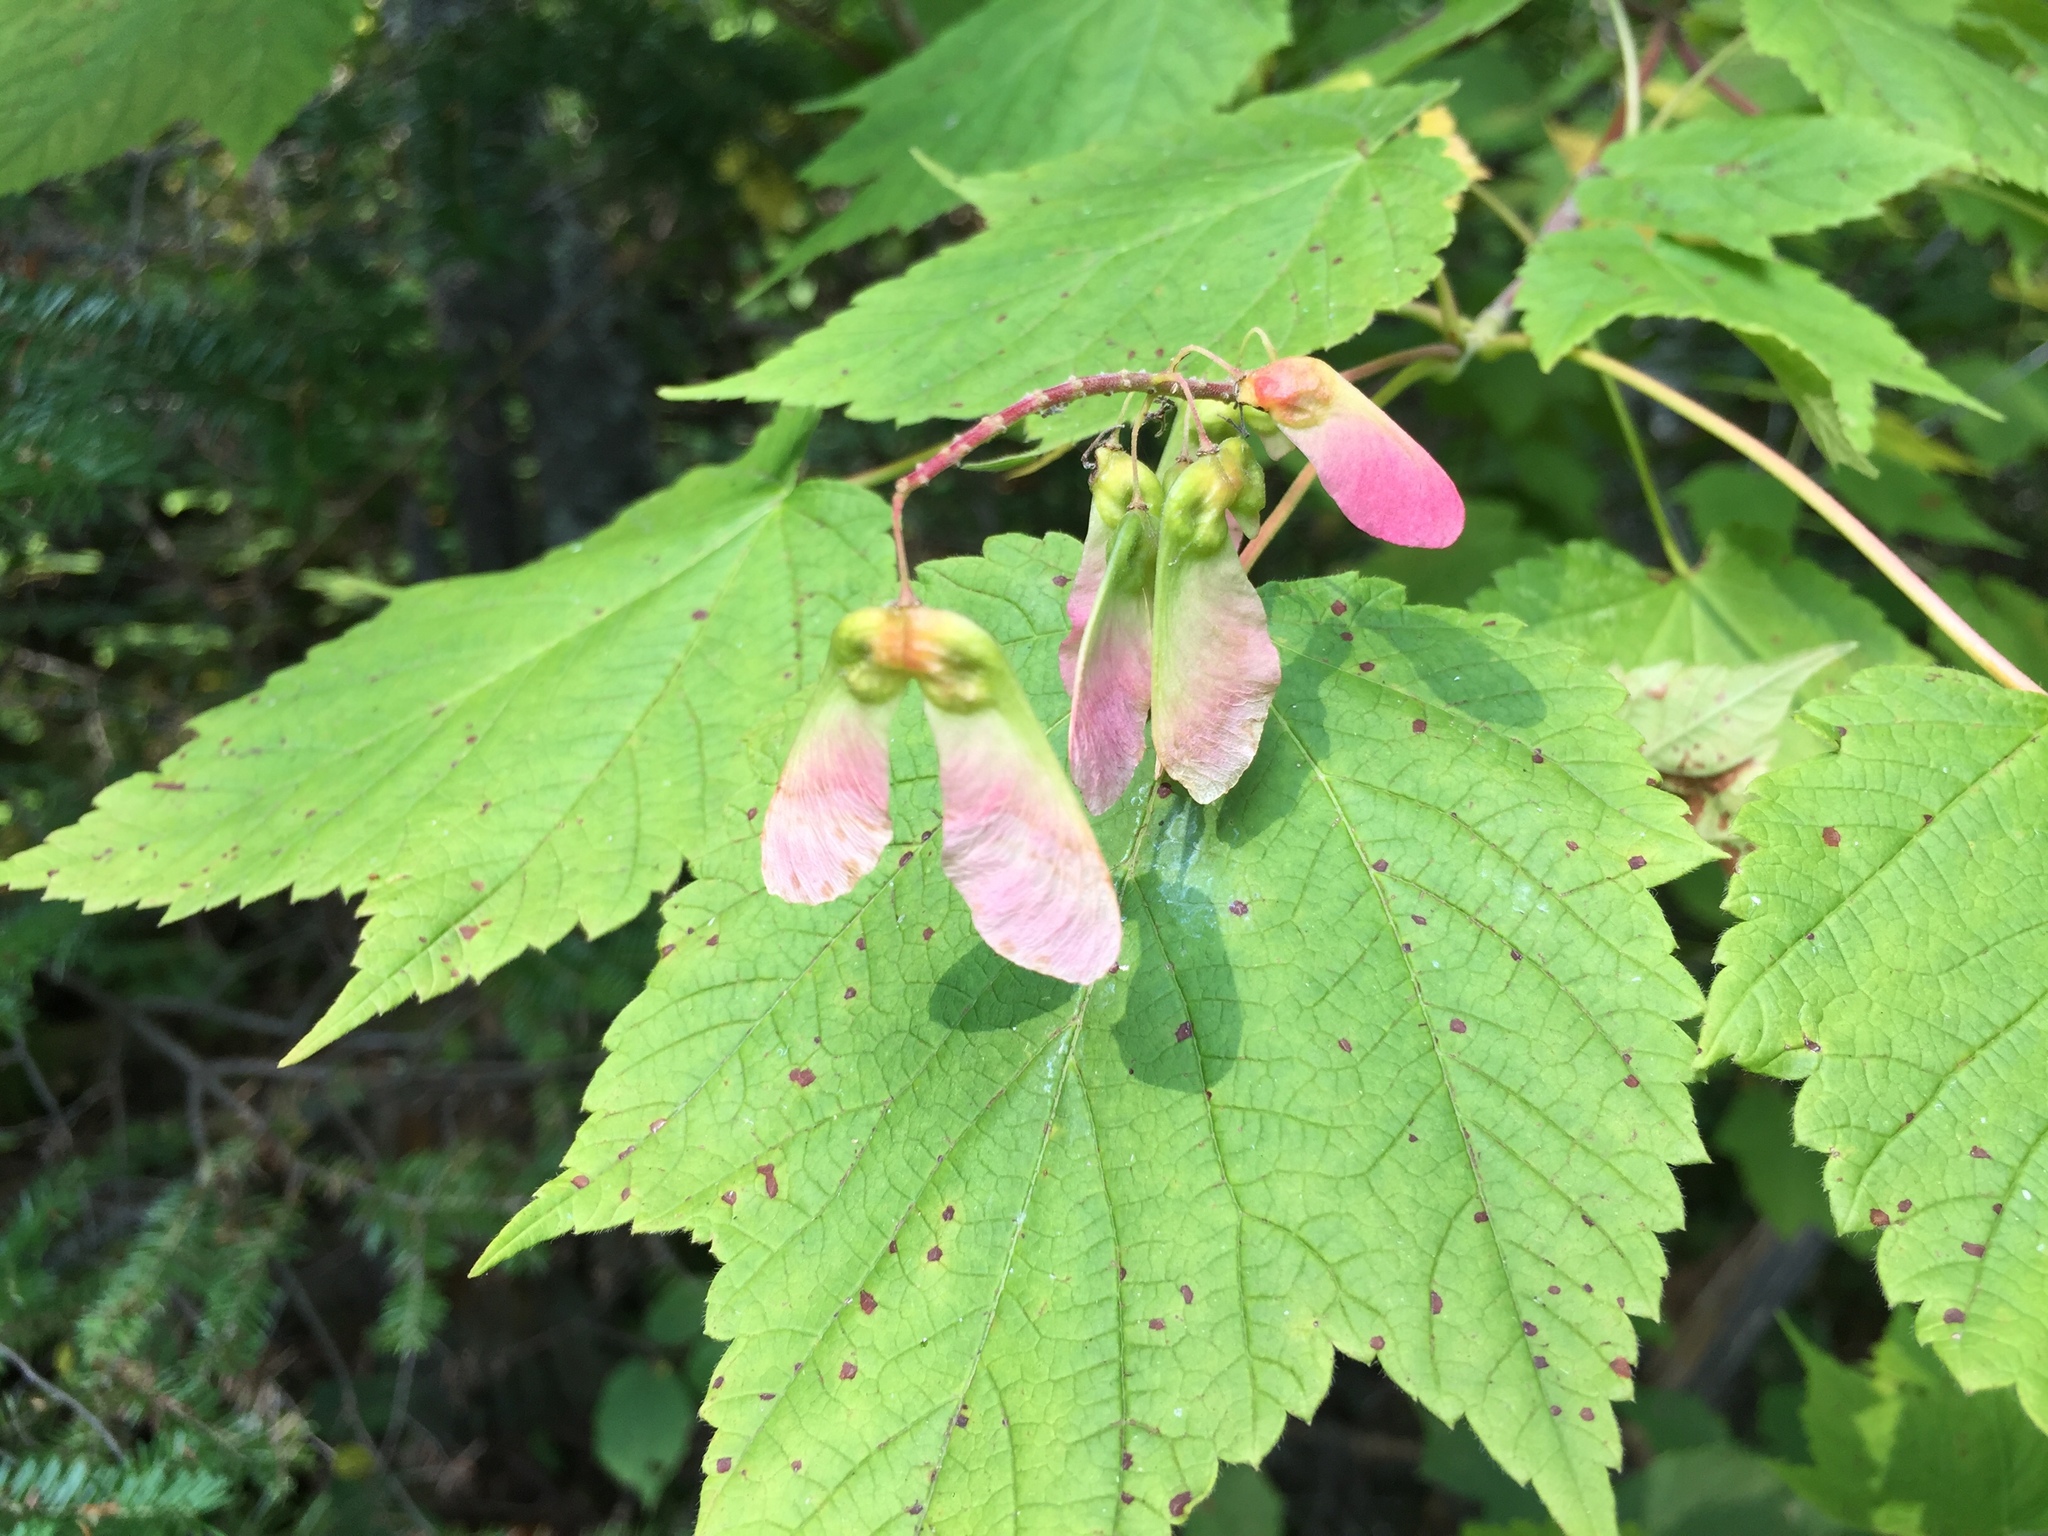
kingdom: Plantae
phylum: Tracheophyta
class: Magnoliopsida
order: Sapindales
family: Sapindaceae
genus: Acer
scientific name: Acer spicatum
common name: Mountain maple
